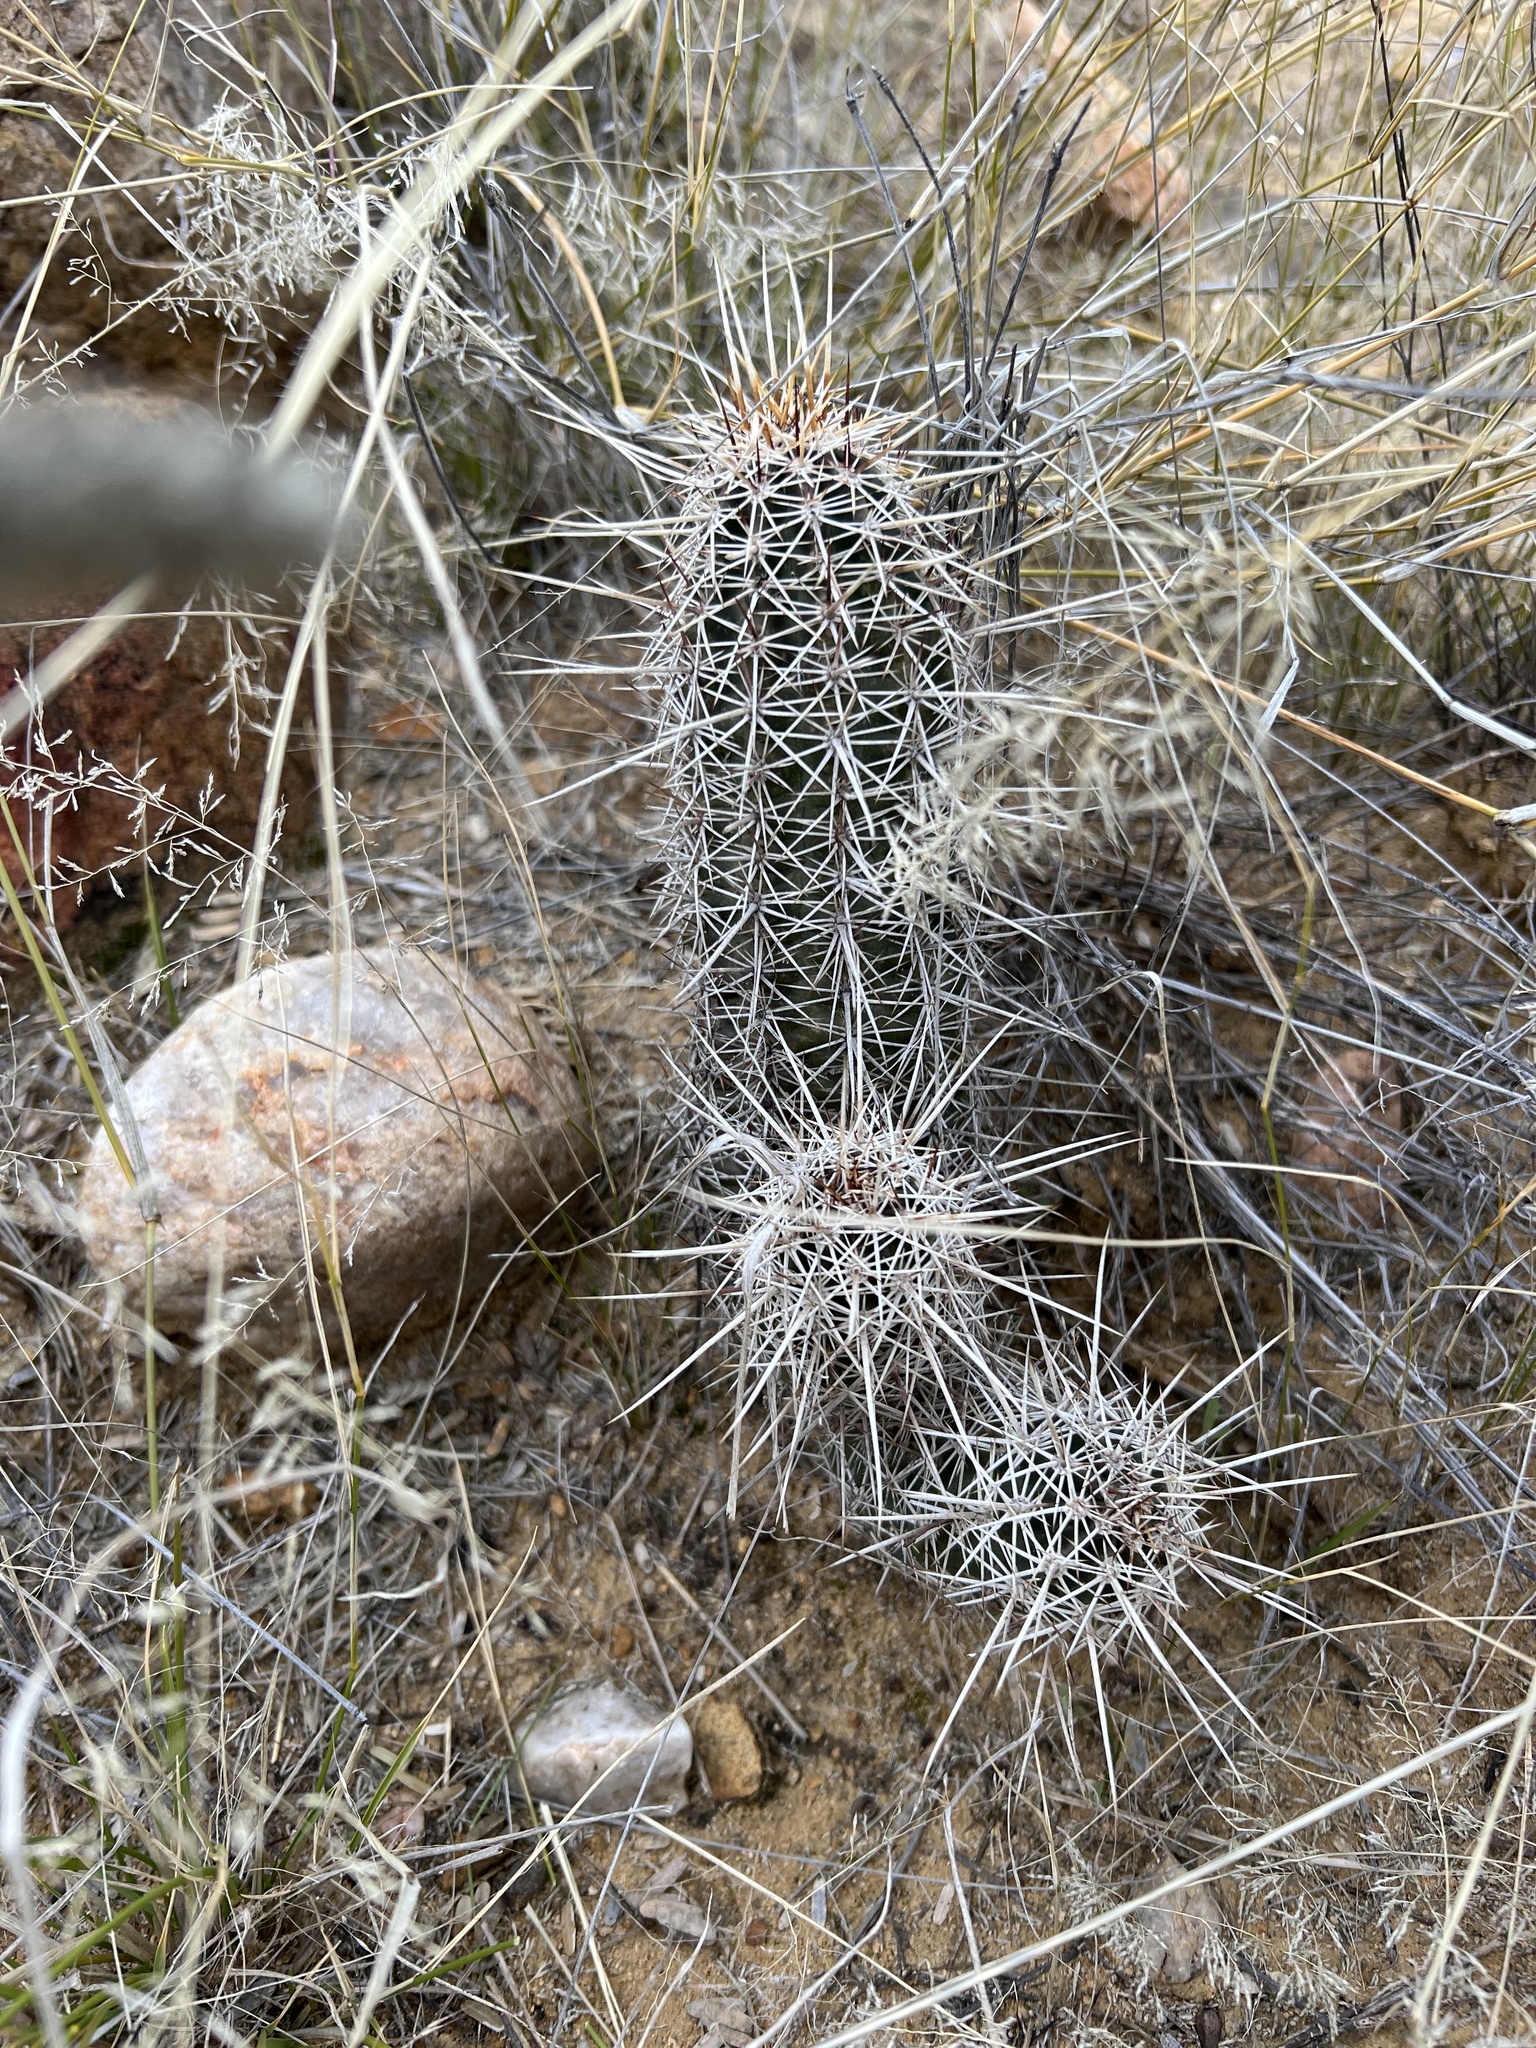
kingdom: Plantae
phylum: Tracheophyta
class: Magnoliopsida
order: Caryophyllales
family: Cactaceae
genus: Echinocereus
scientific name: Echinocereus fasciculatus
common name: Bundle hedgehog
